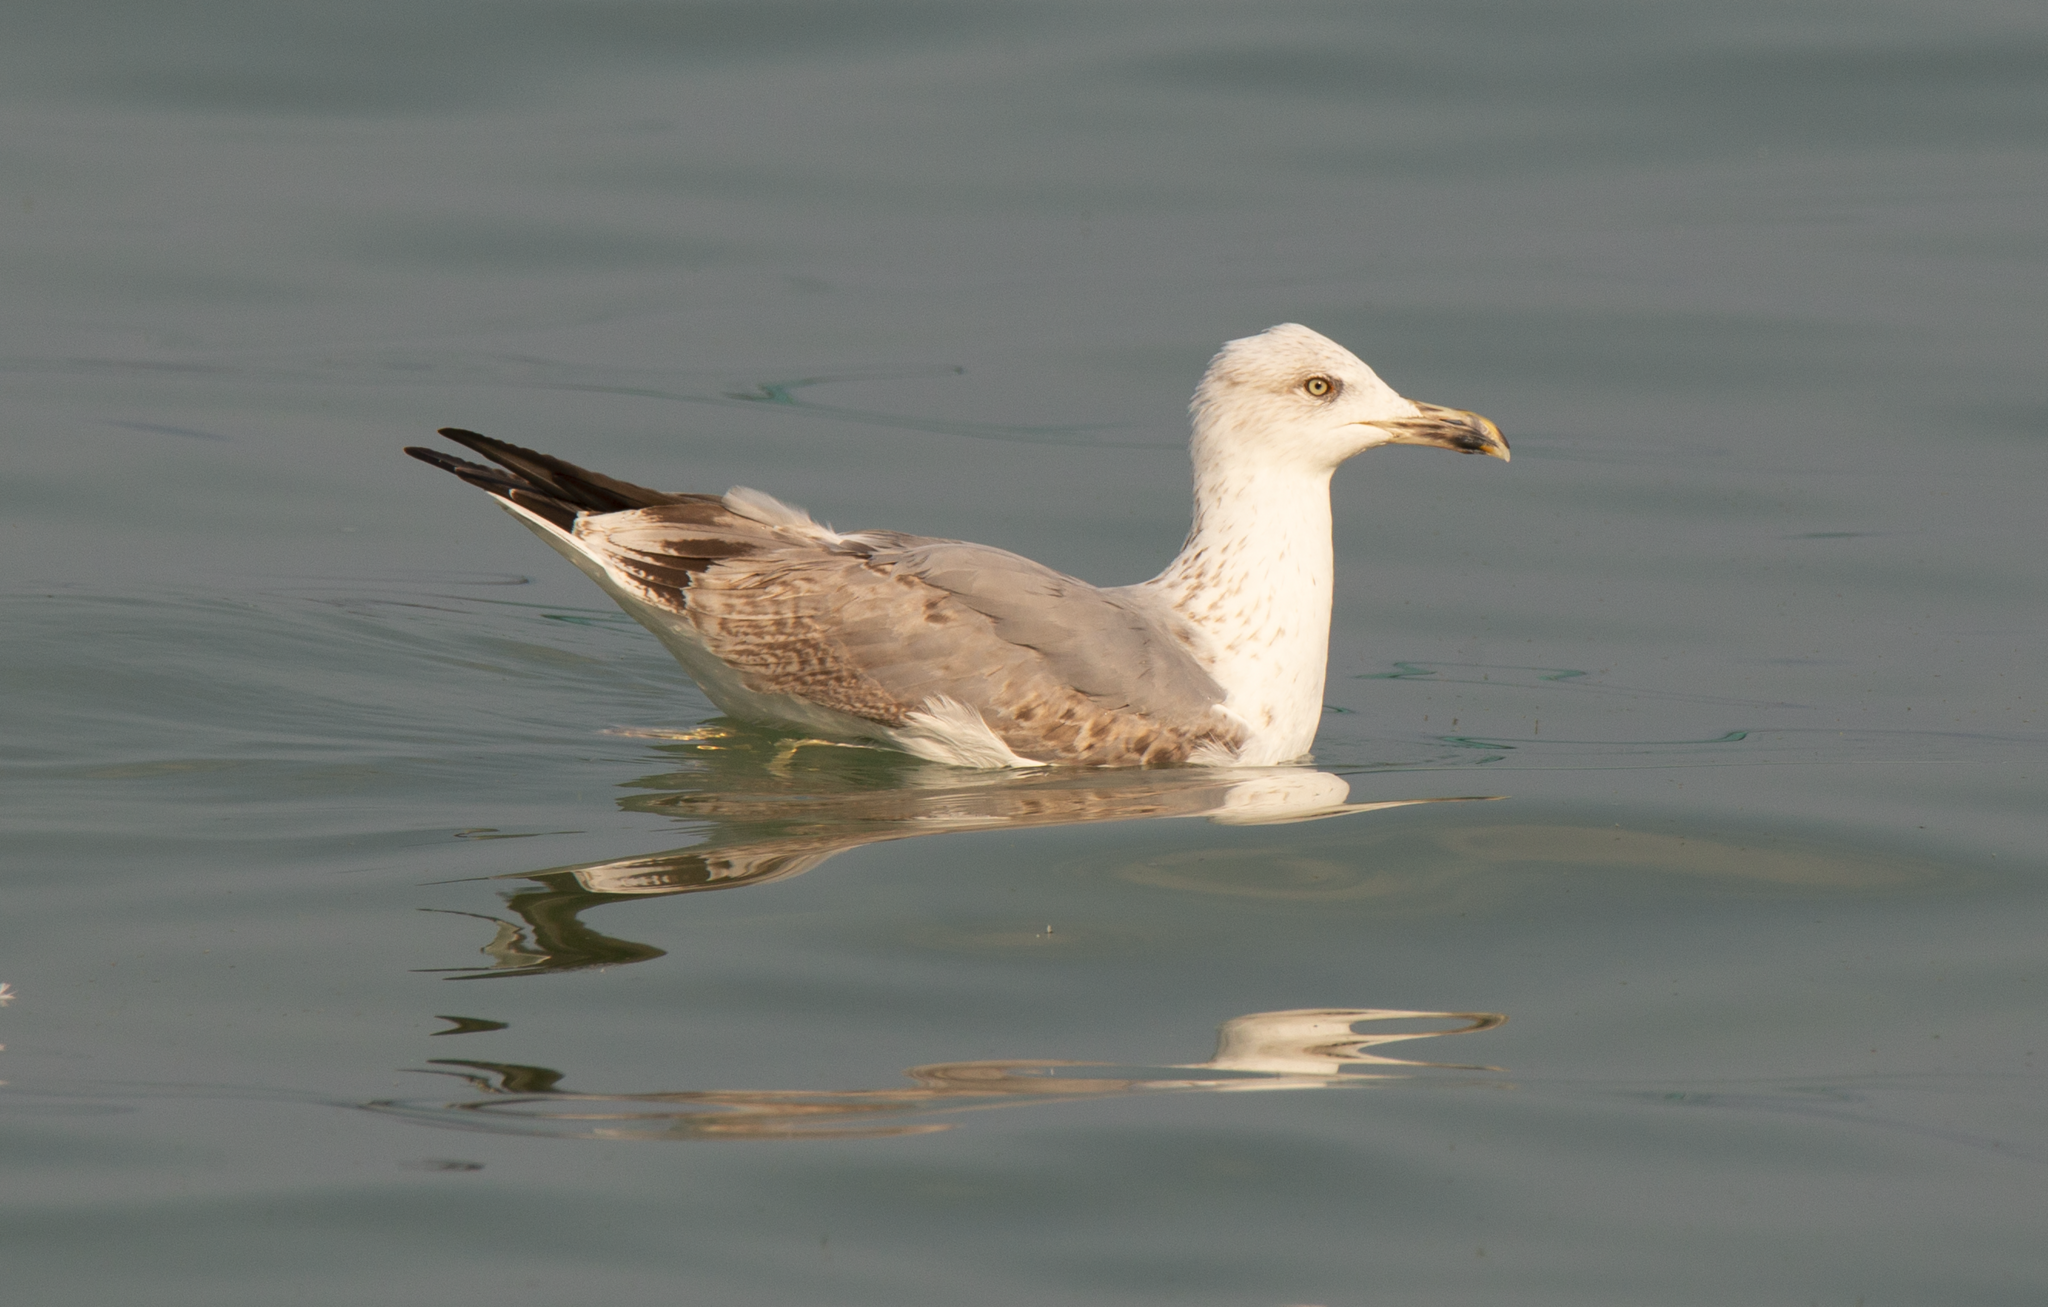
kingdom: Animalia
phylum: Chordata
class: Aves
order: Charadriiformes
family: Laridae
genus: Larus
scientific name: Larus michahellis
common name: Yellow-legged gull
